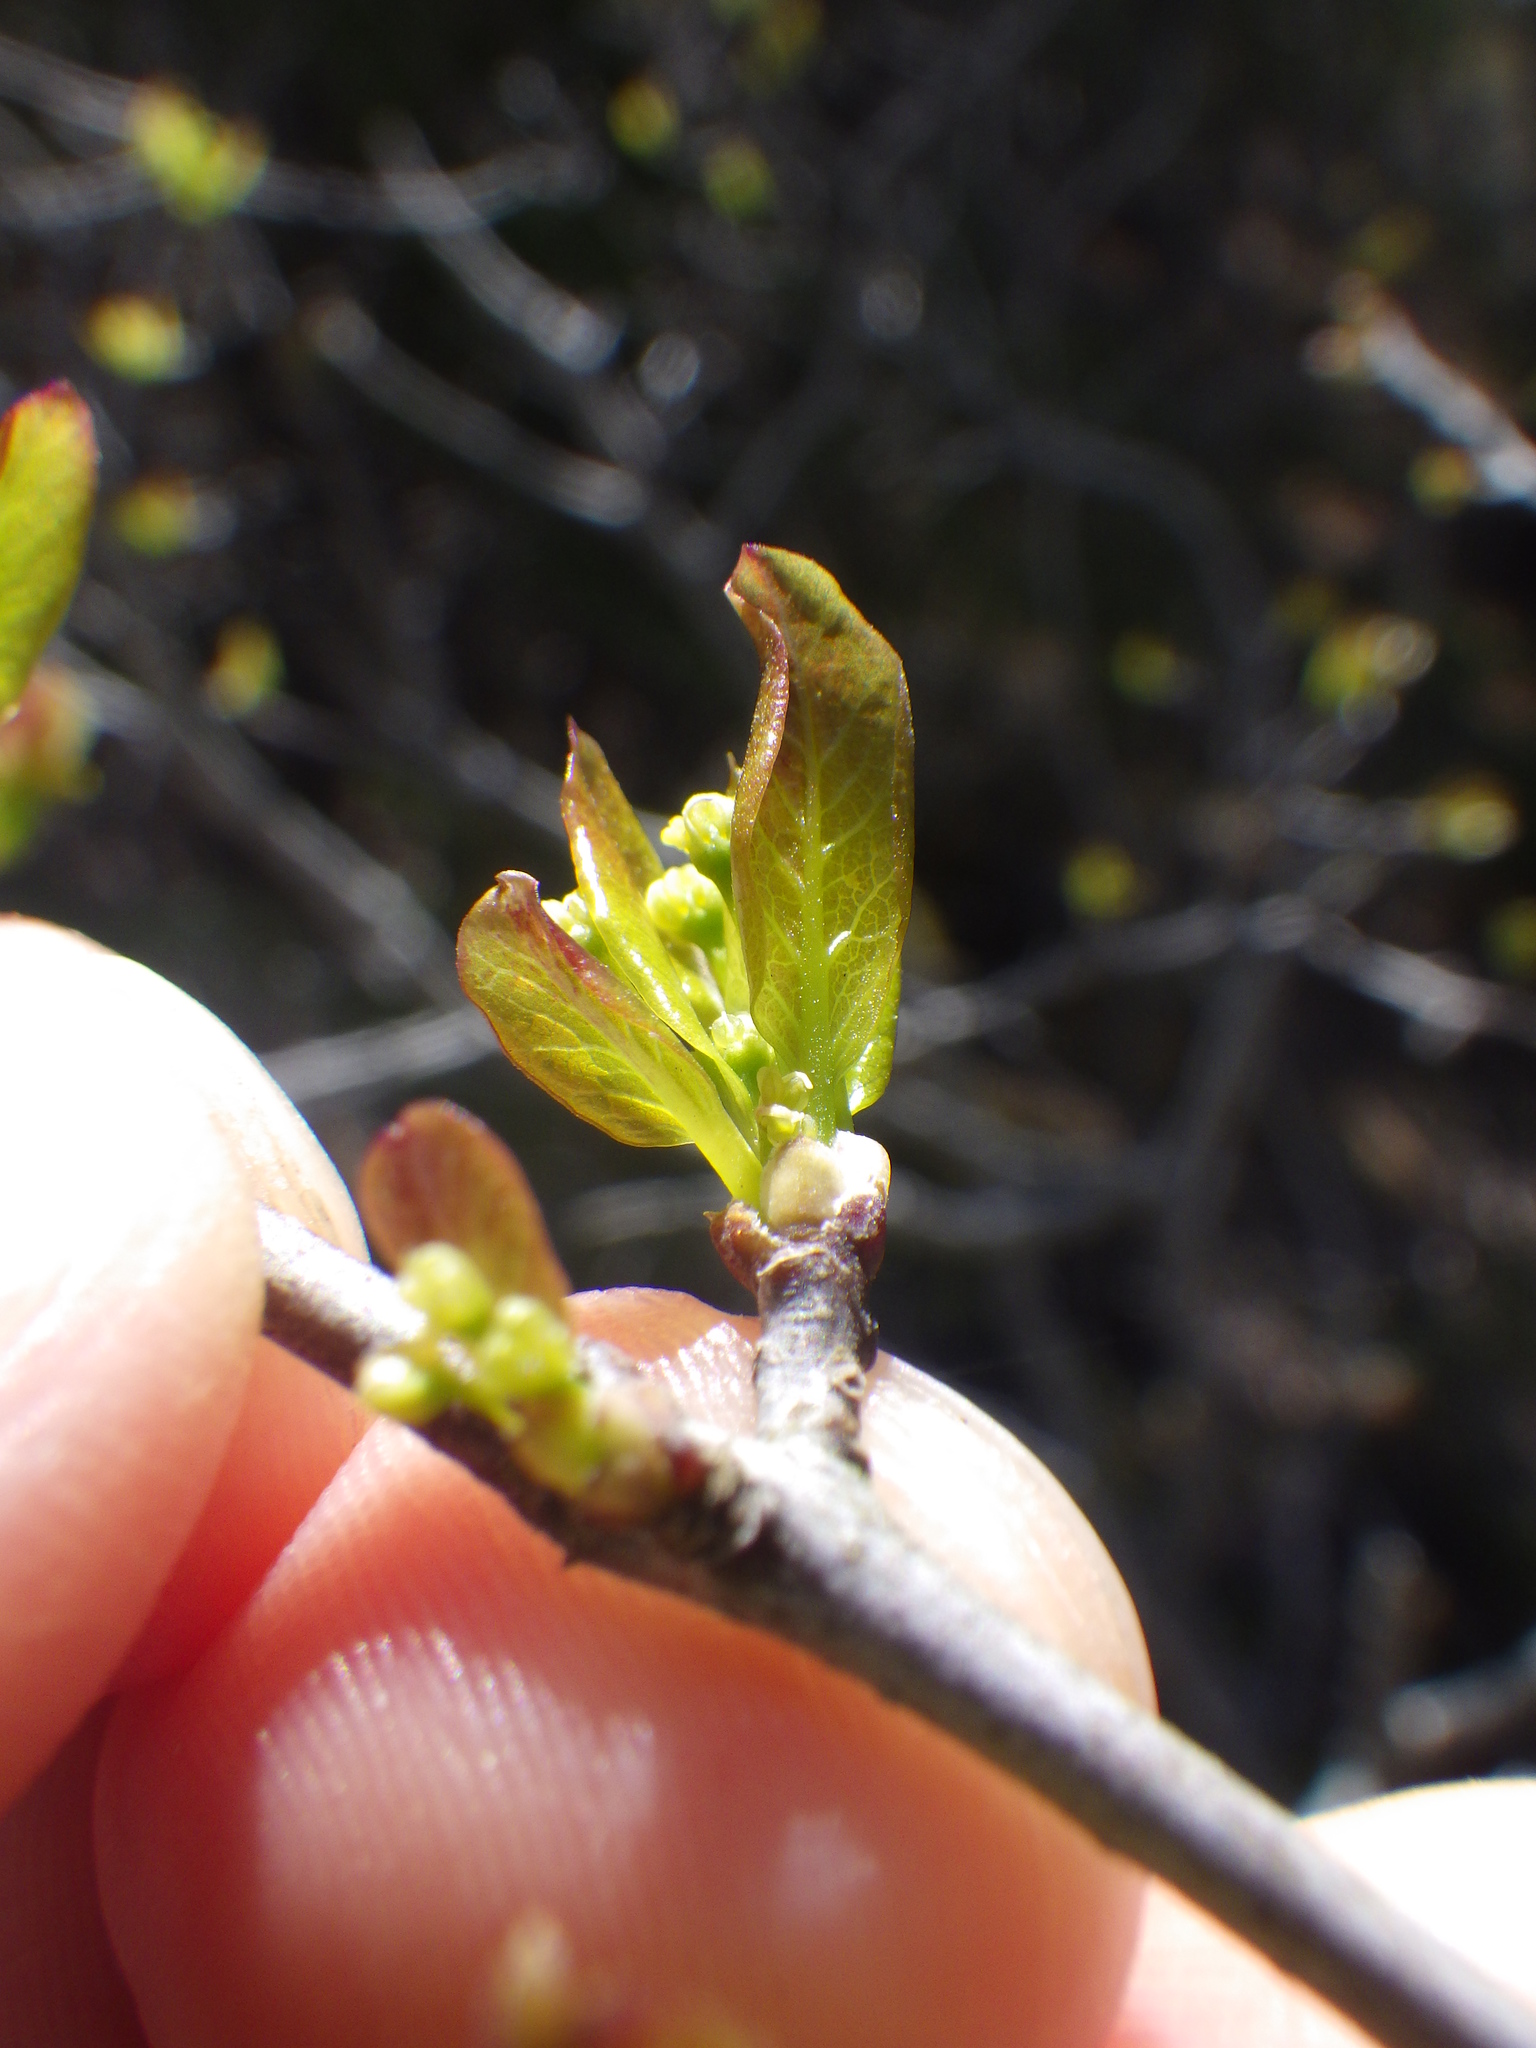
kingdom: Plantae
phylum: Tracheophyta
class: Magnoliopsida
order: Aquifoliales
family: Aquifoliaceae
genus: Ilex
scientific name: Ilex mucronata
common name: Catberry
